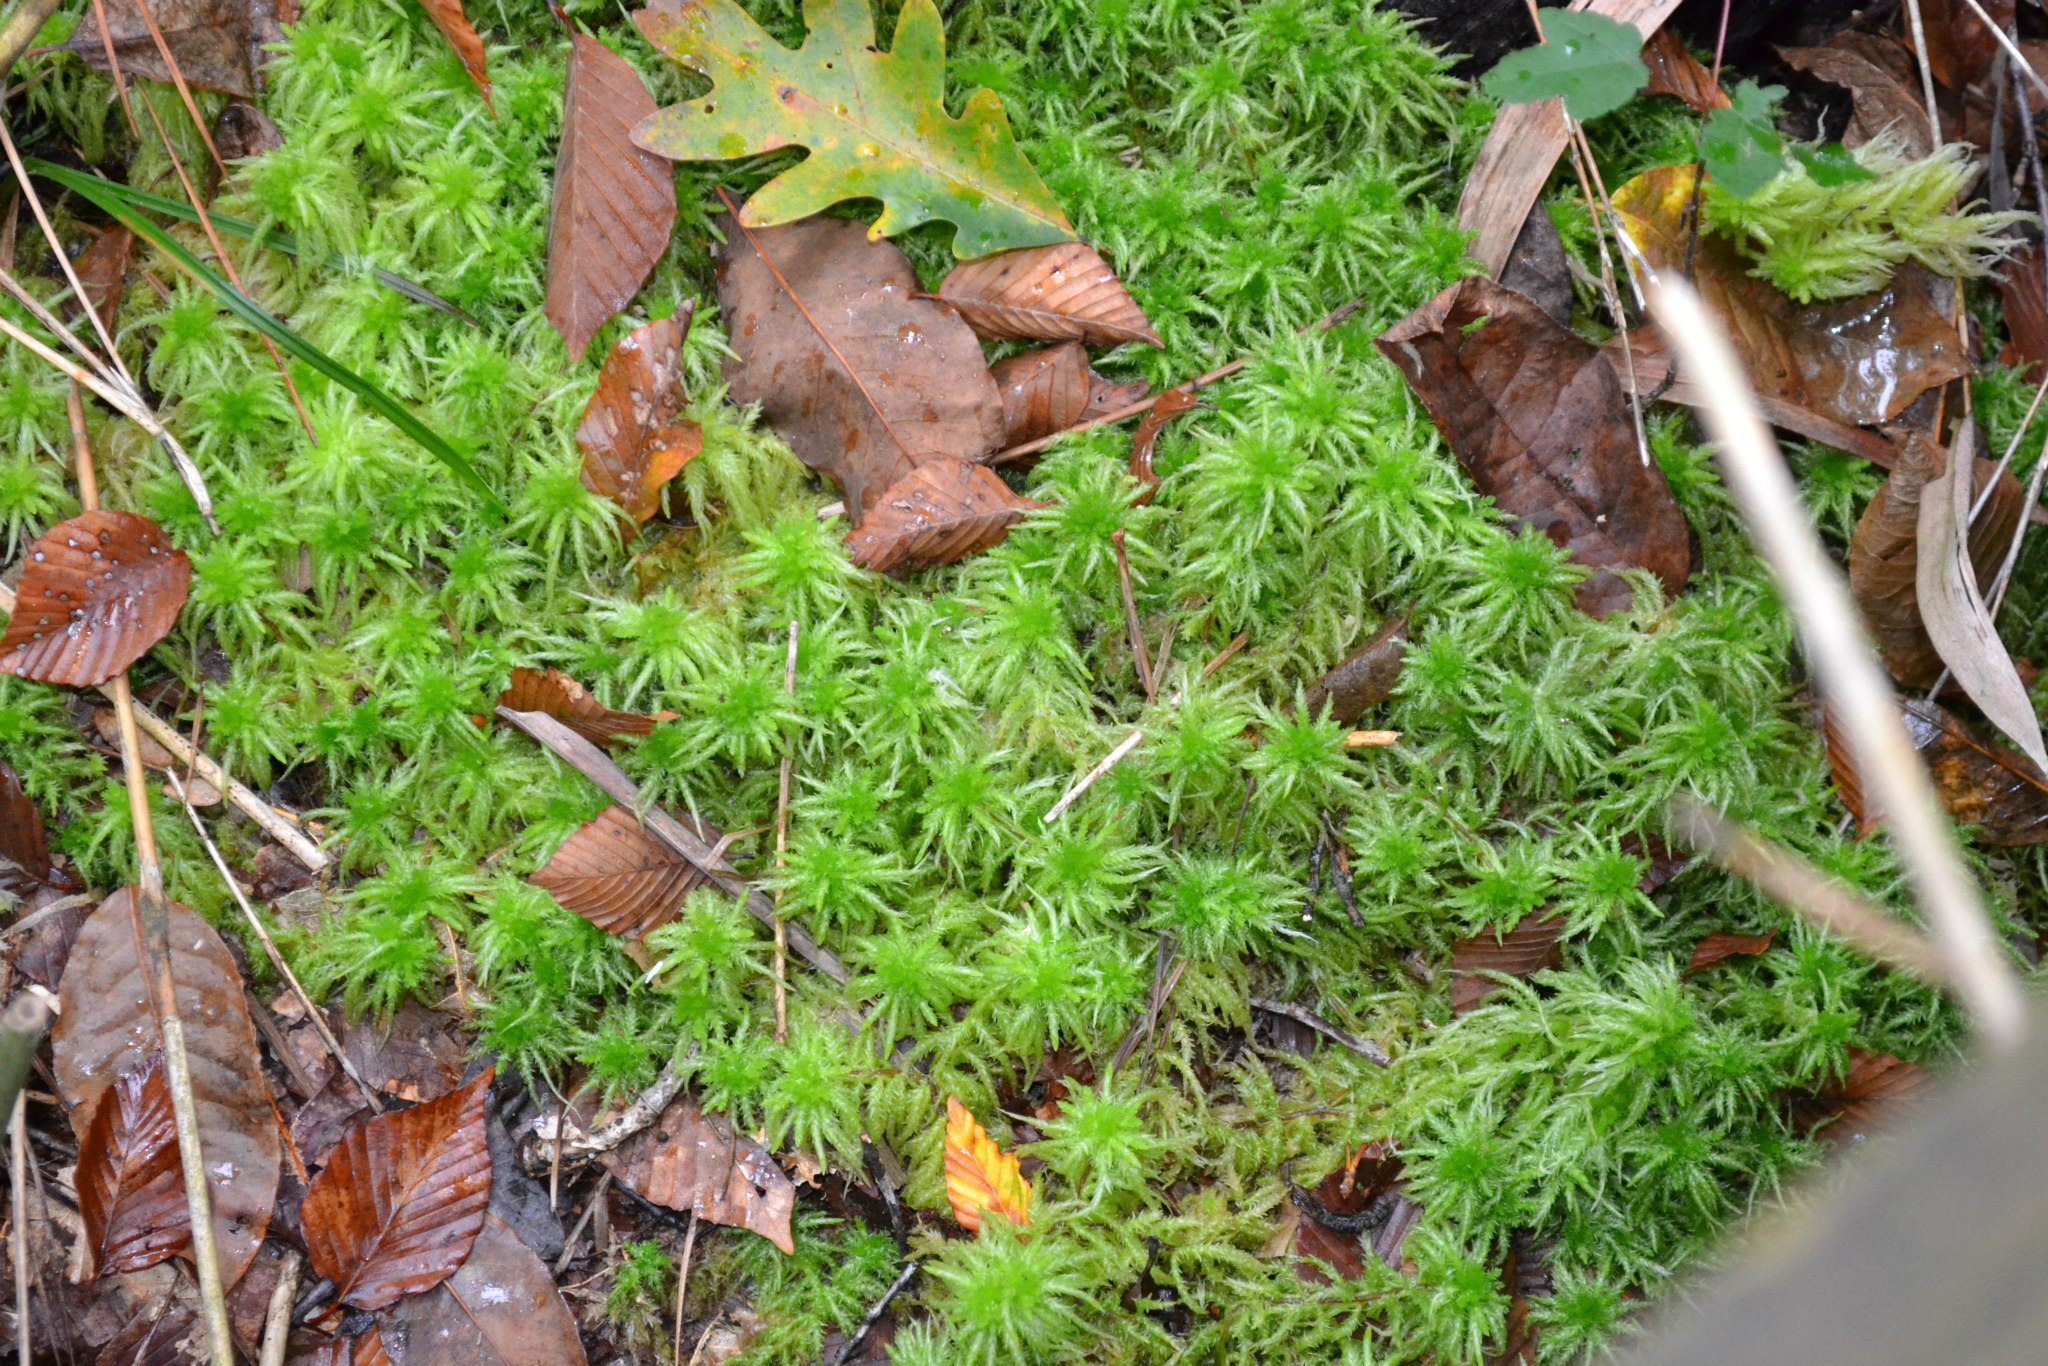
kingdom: Plantae
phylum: Bryophyta
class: Sphagnopsida
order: Sphagnales
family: Sphagnaceae
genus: Sphagnum
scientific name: Sphagnum squarrosum
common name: Shaggy peat moss
